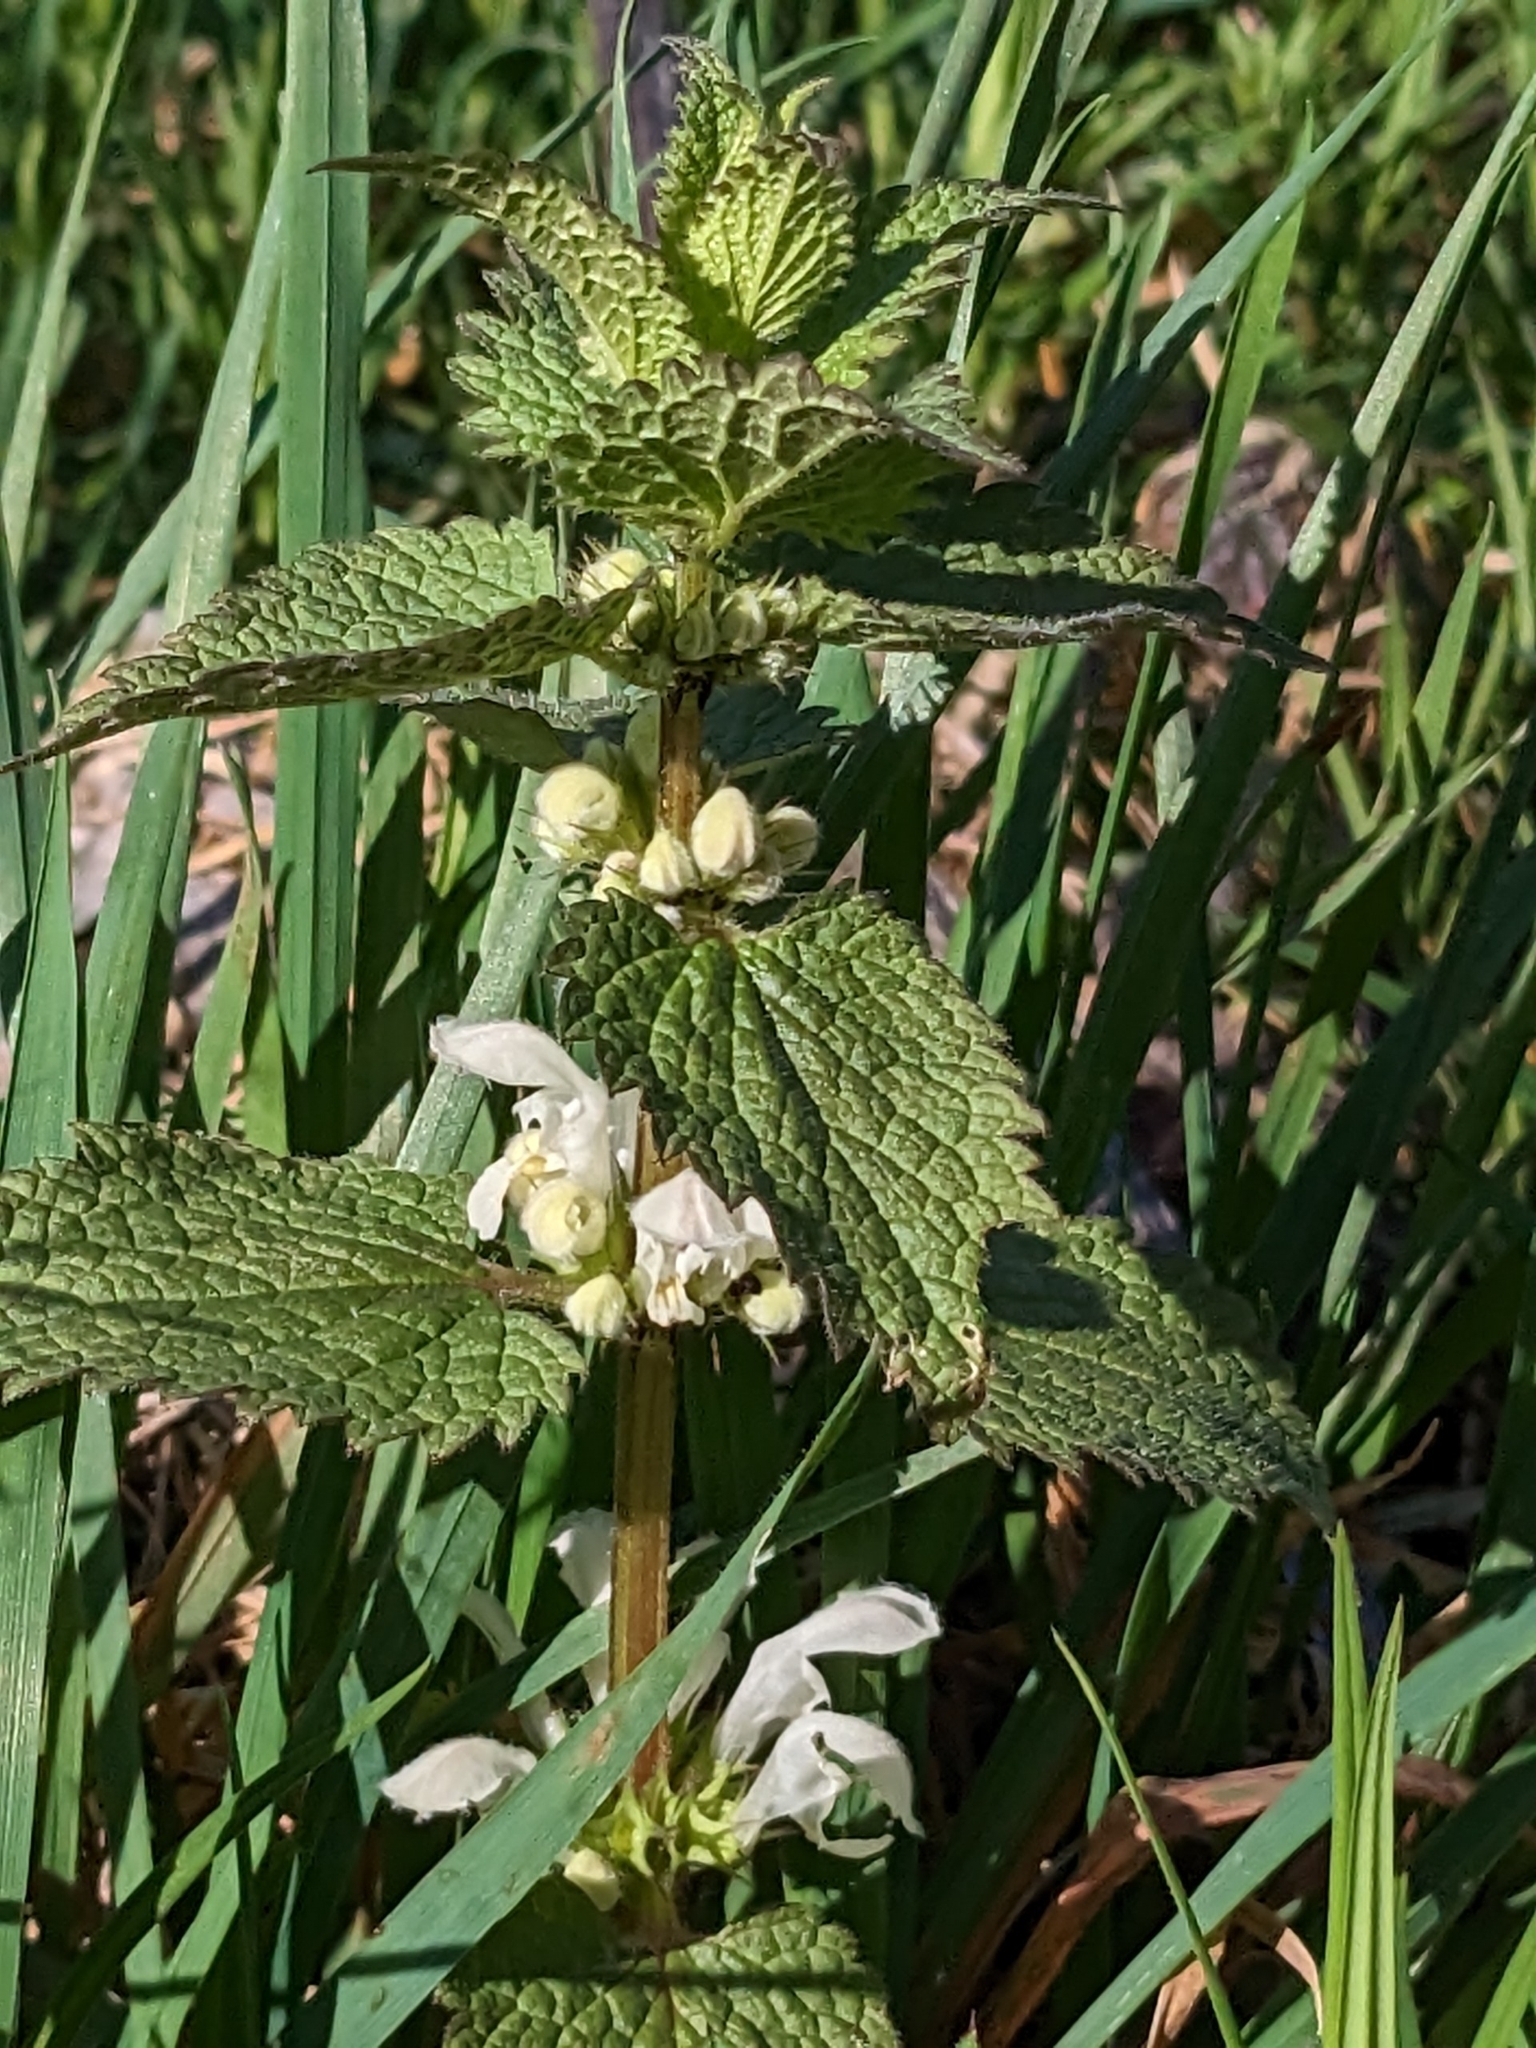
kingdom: Plantae
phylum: Tracheophyta
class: Magnoliopsida
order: Lamiales
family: Lamiaceae
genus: Lamium
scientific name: Lamium album
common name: White dead-nettle
